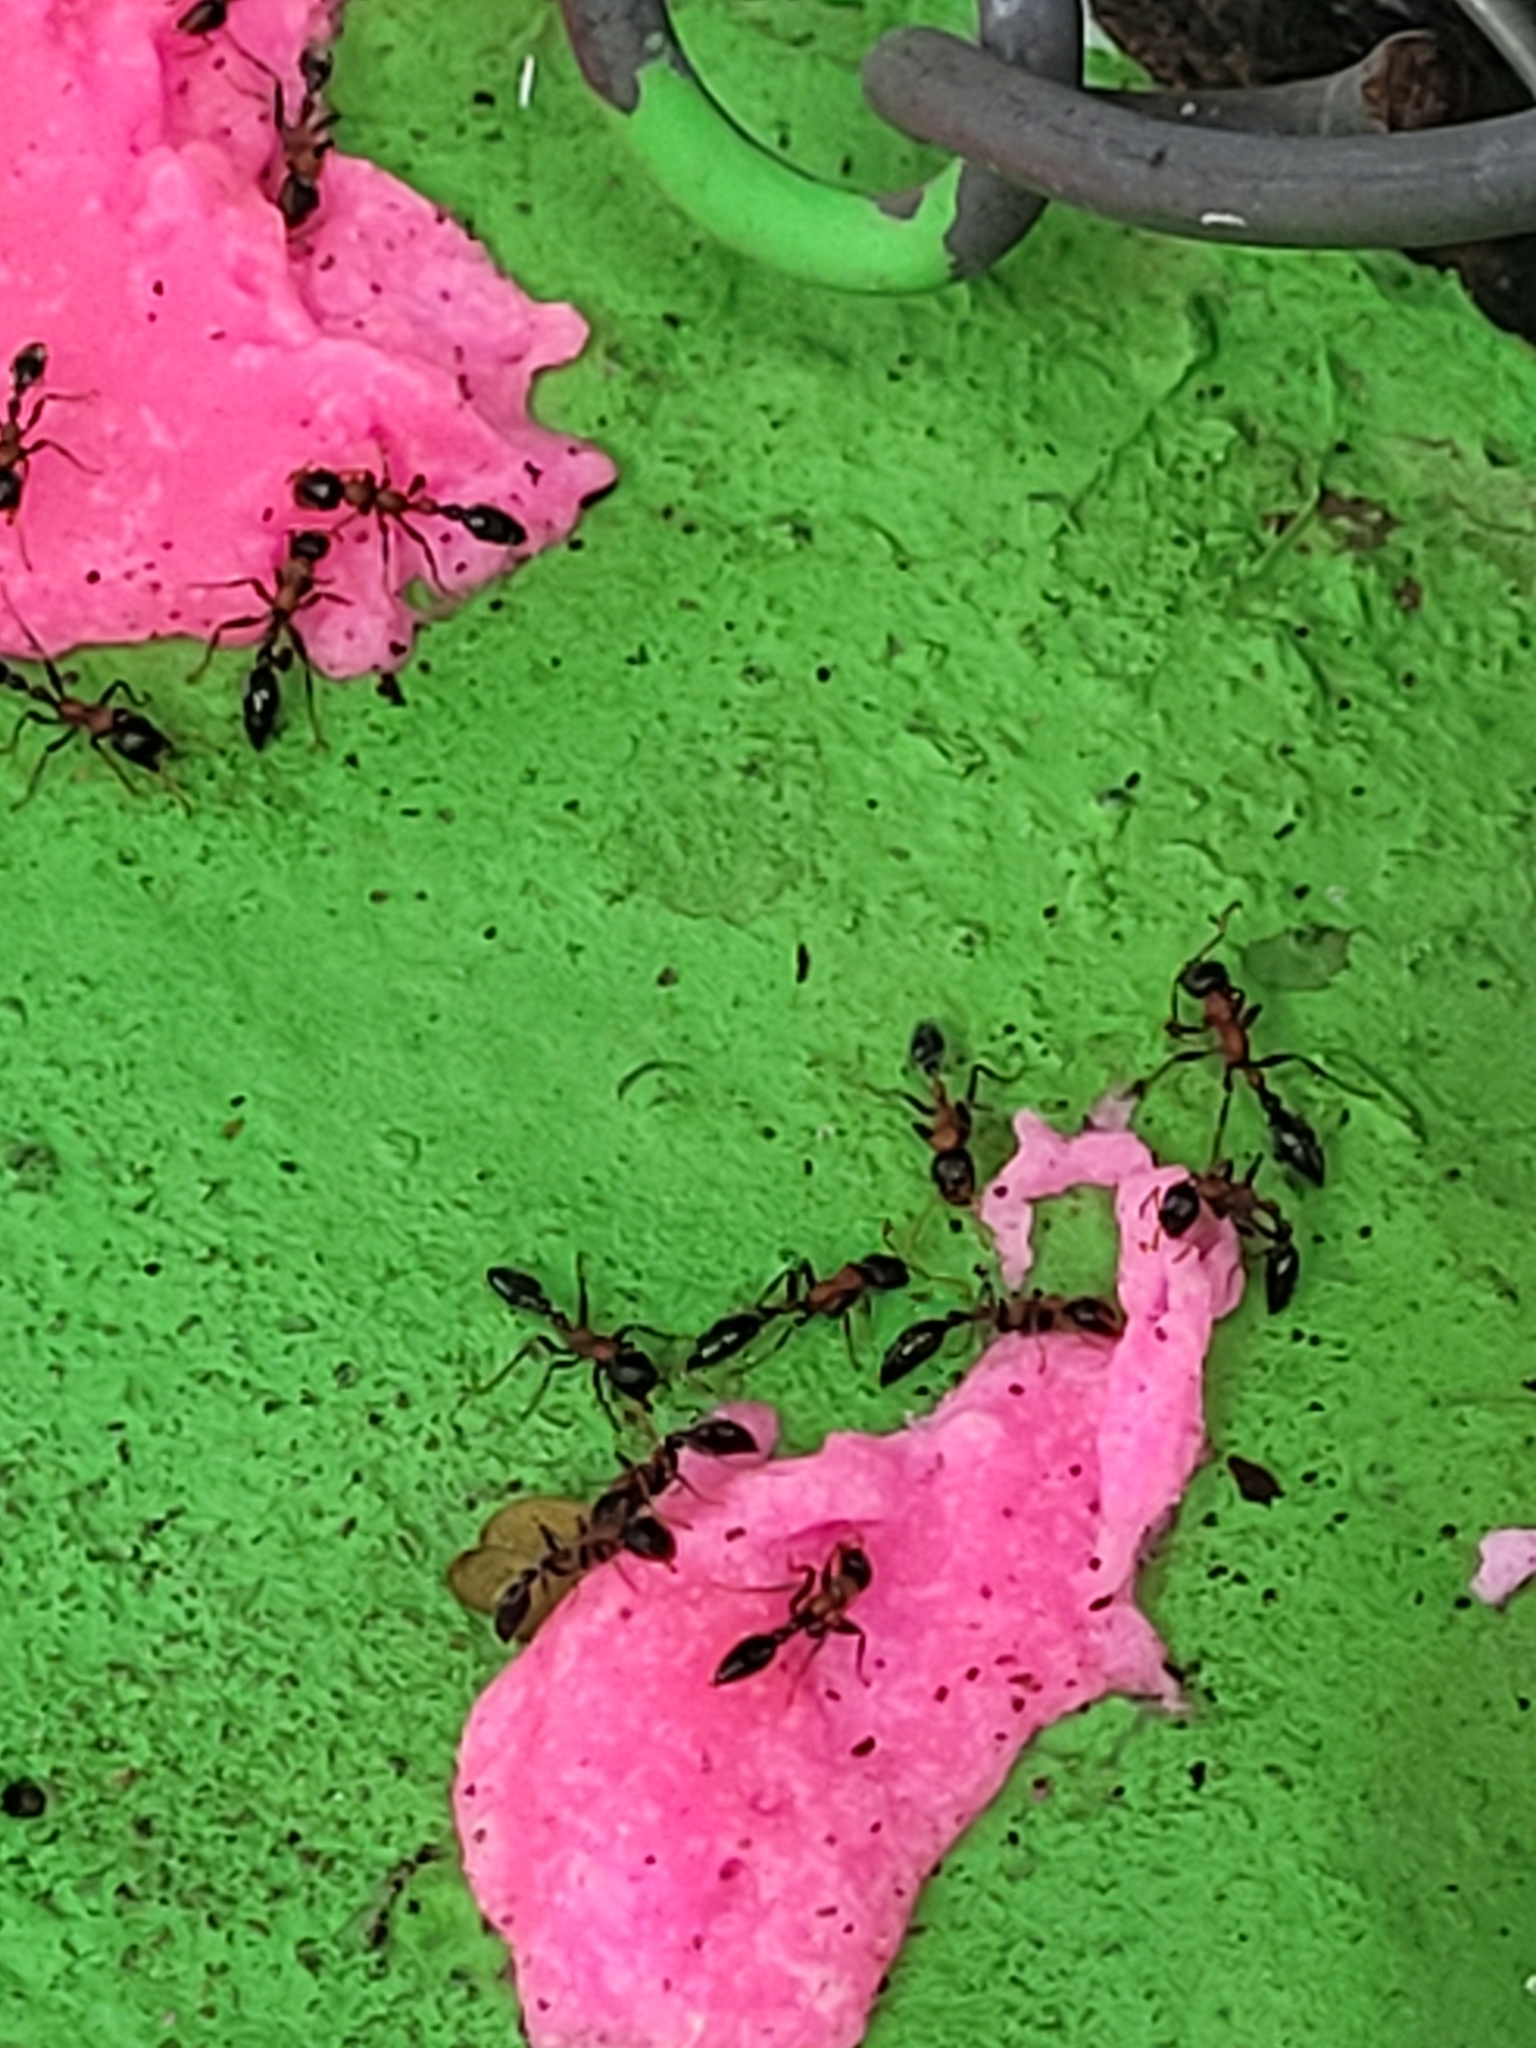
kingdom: Animalia
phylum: Arthropoda
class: Insecta
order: Hymenoptera
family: Formicidae
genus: Tetraponera
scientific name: Tetraponera rufonigra
